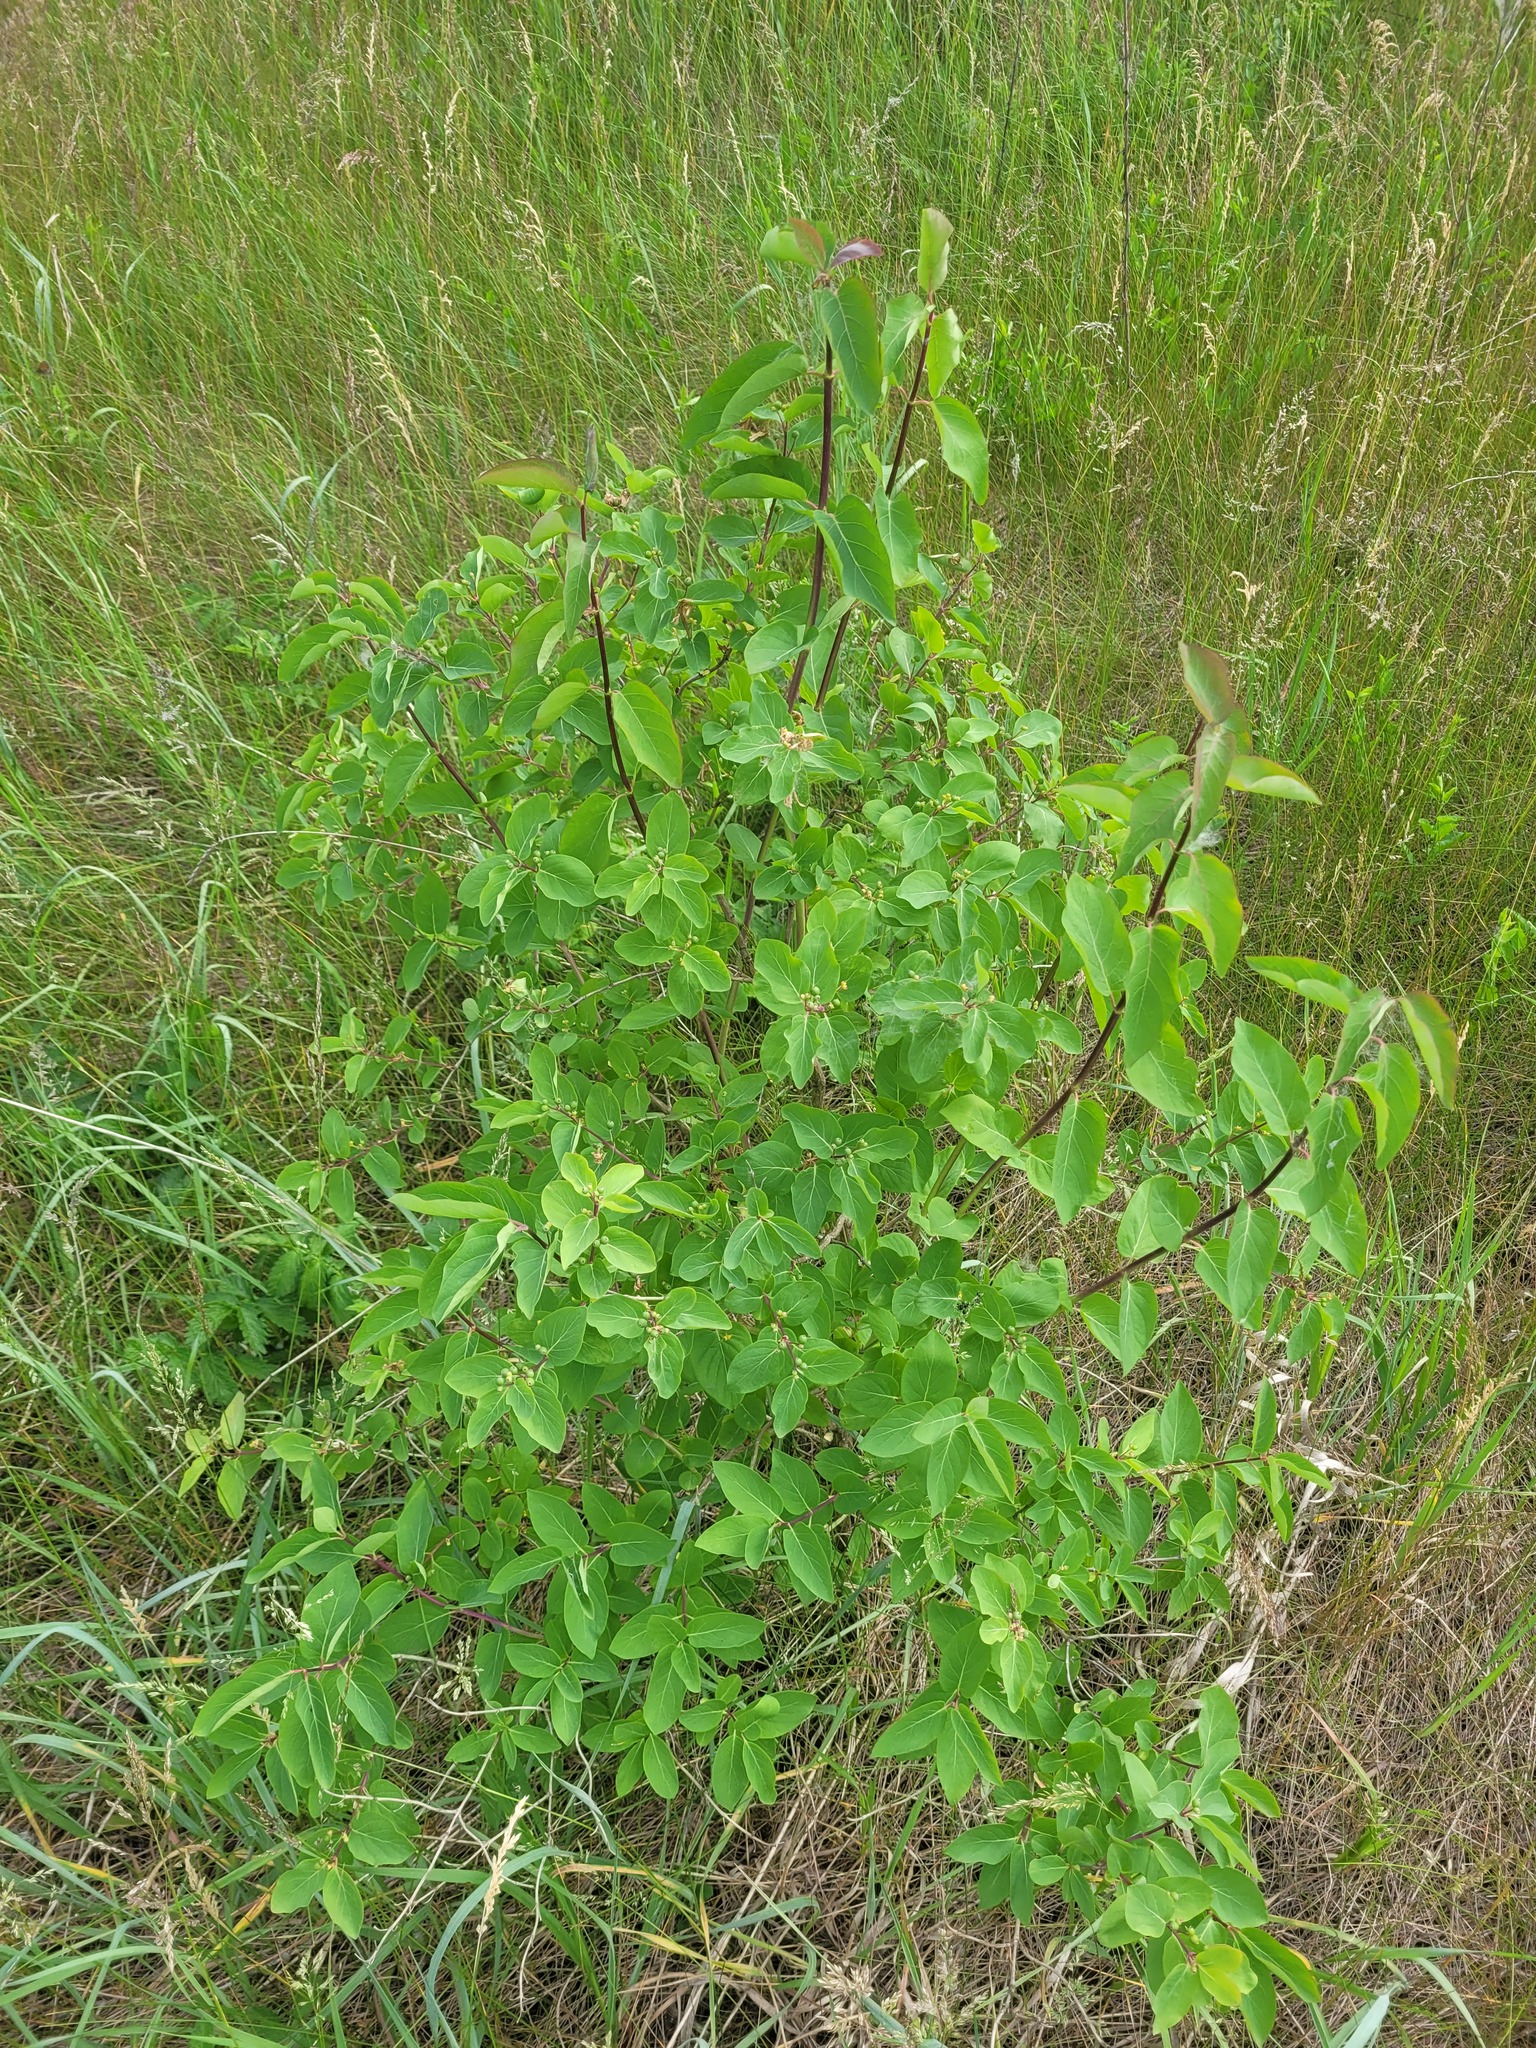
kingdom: Plantae
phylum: Tracheophyta
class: Magnoliopsida
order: Dipsacales
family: Caprifoliaceae
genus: Lonicera
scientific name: Lonicera tatarica
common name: Tatarian honeysuckle
